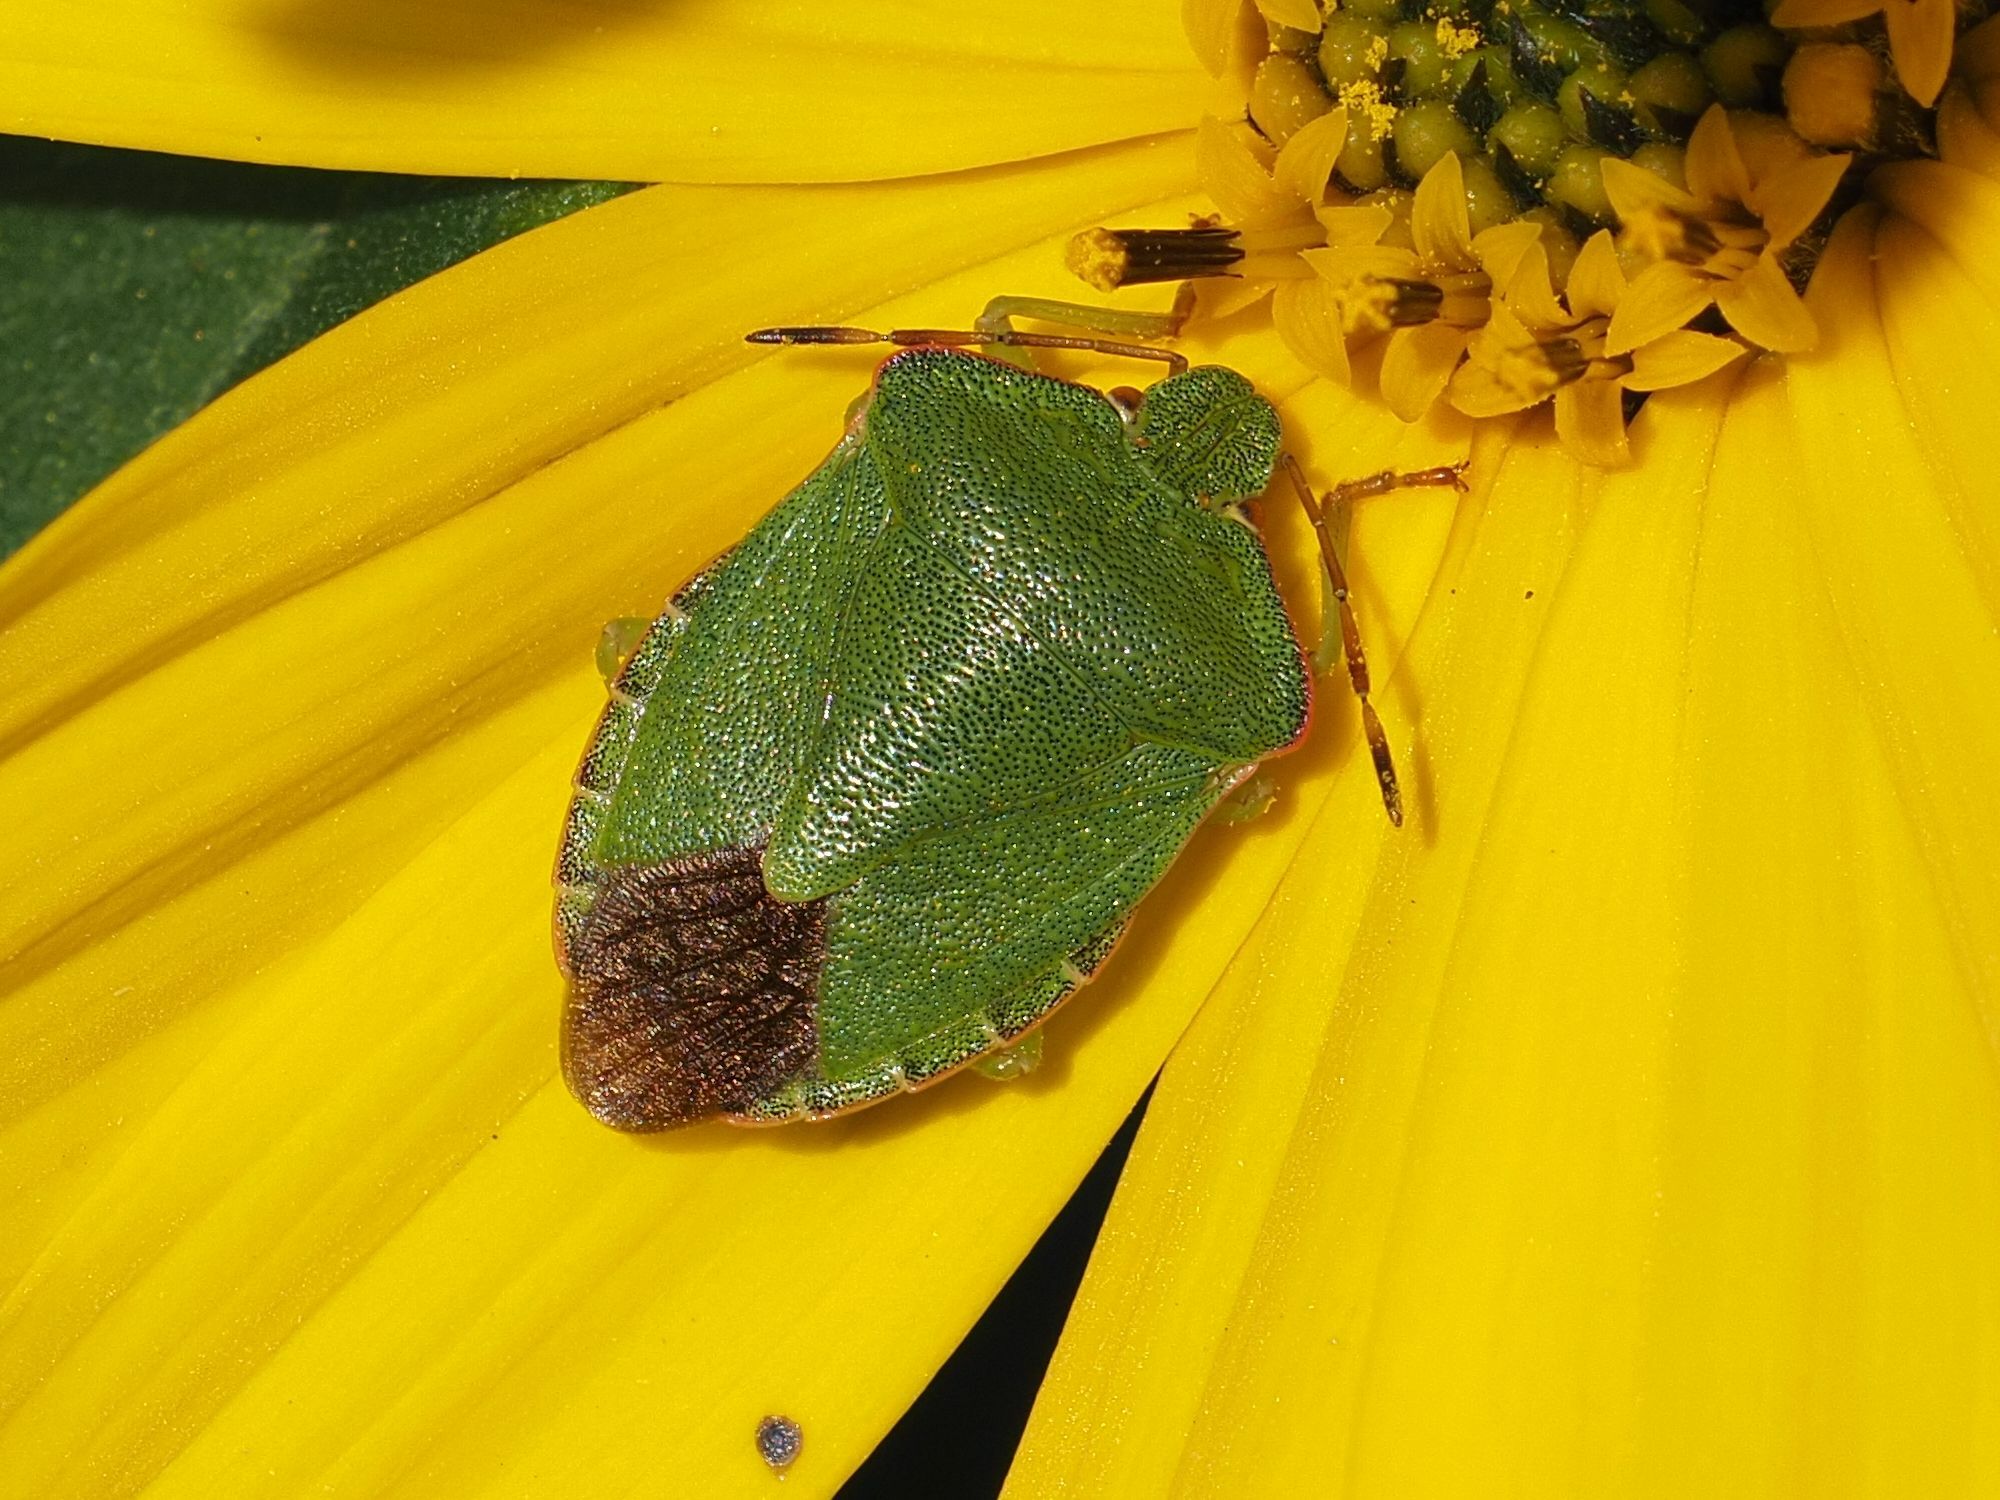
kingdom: Animalia
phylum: Arthropoda
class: Insecta
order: Hemiptera
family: Pentatomidae
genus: Palomena
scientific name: Palomena prasina
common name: Green shieldbug
